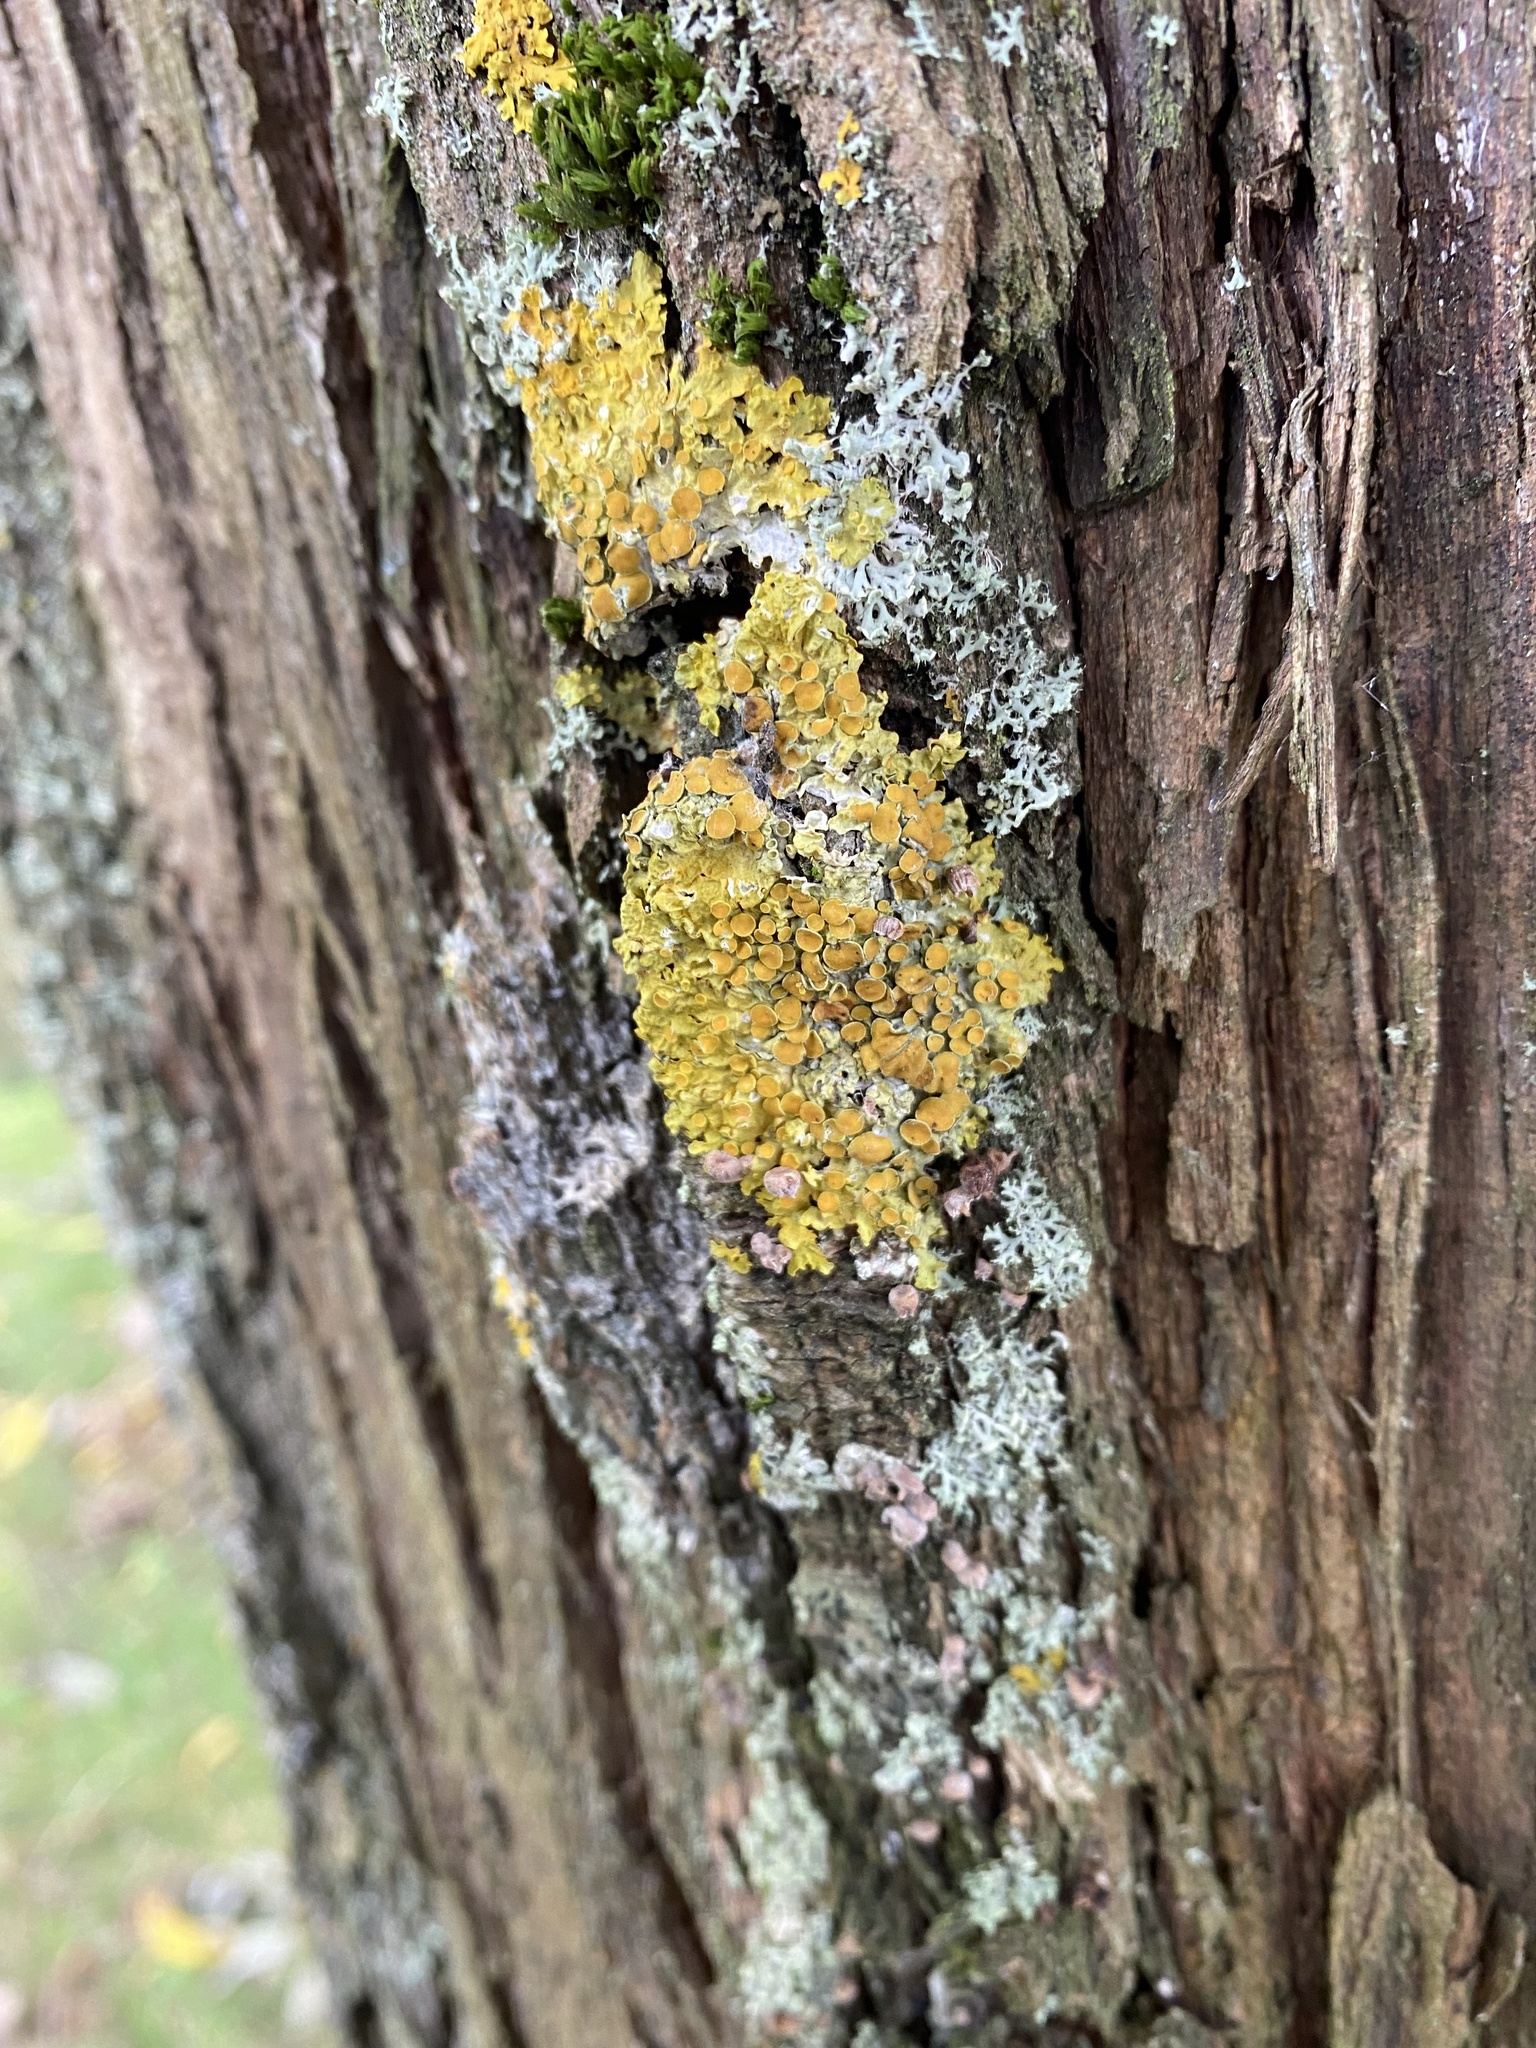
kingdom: Fungi
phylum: Ascomycota
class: Lecanoromycetes
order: Teloschistales
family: Teloschistaceae
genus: Xanthoria
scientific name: Xanthoria parietina
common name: Common orange lichen
